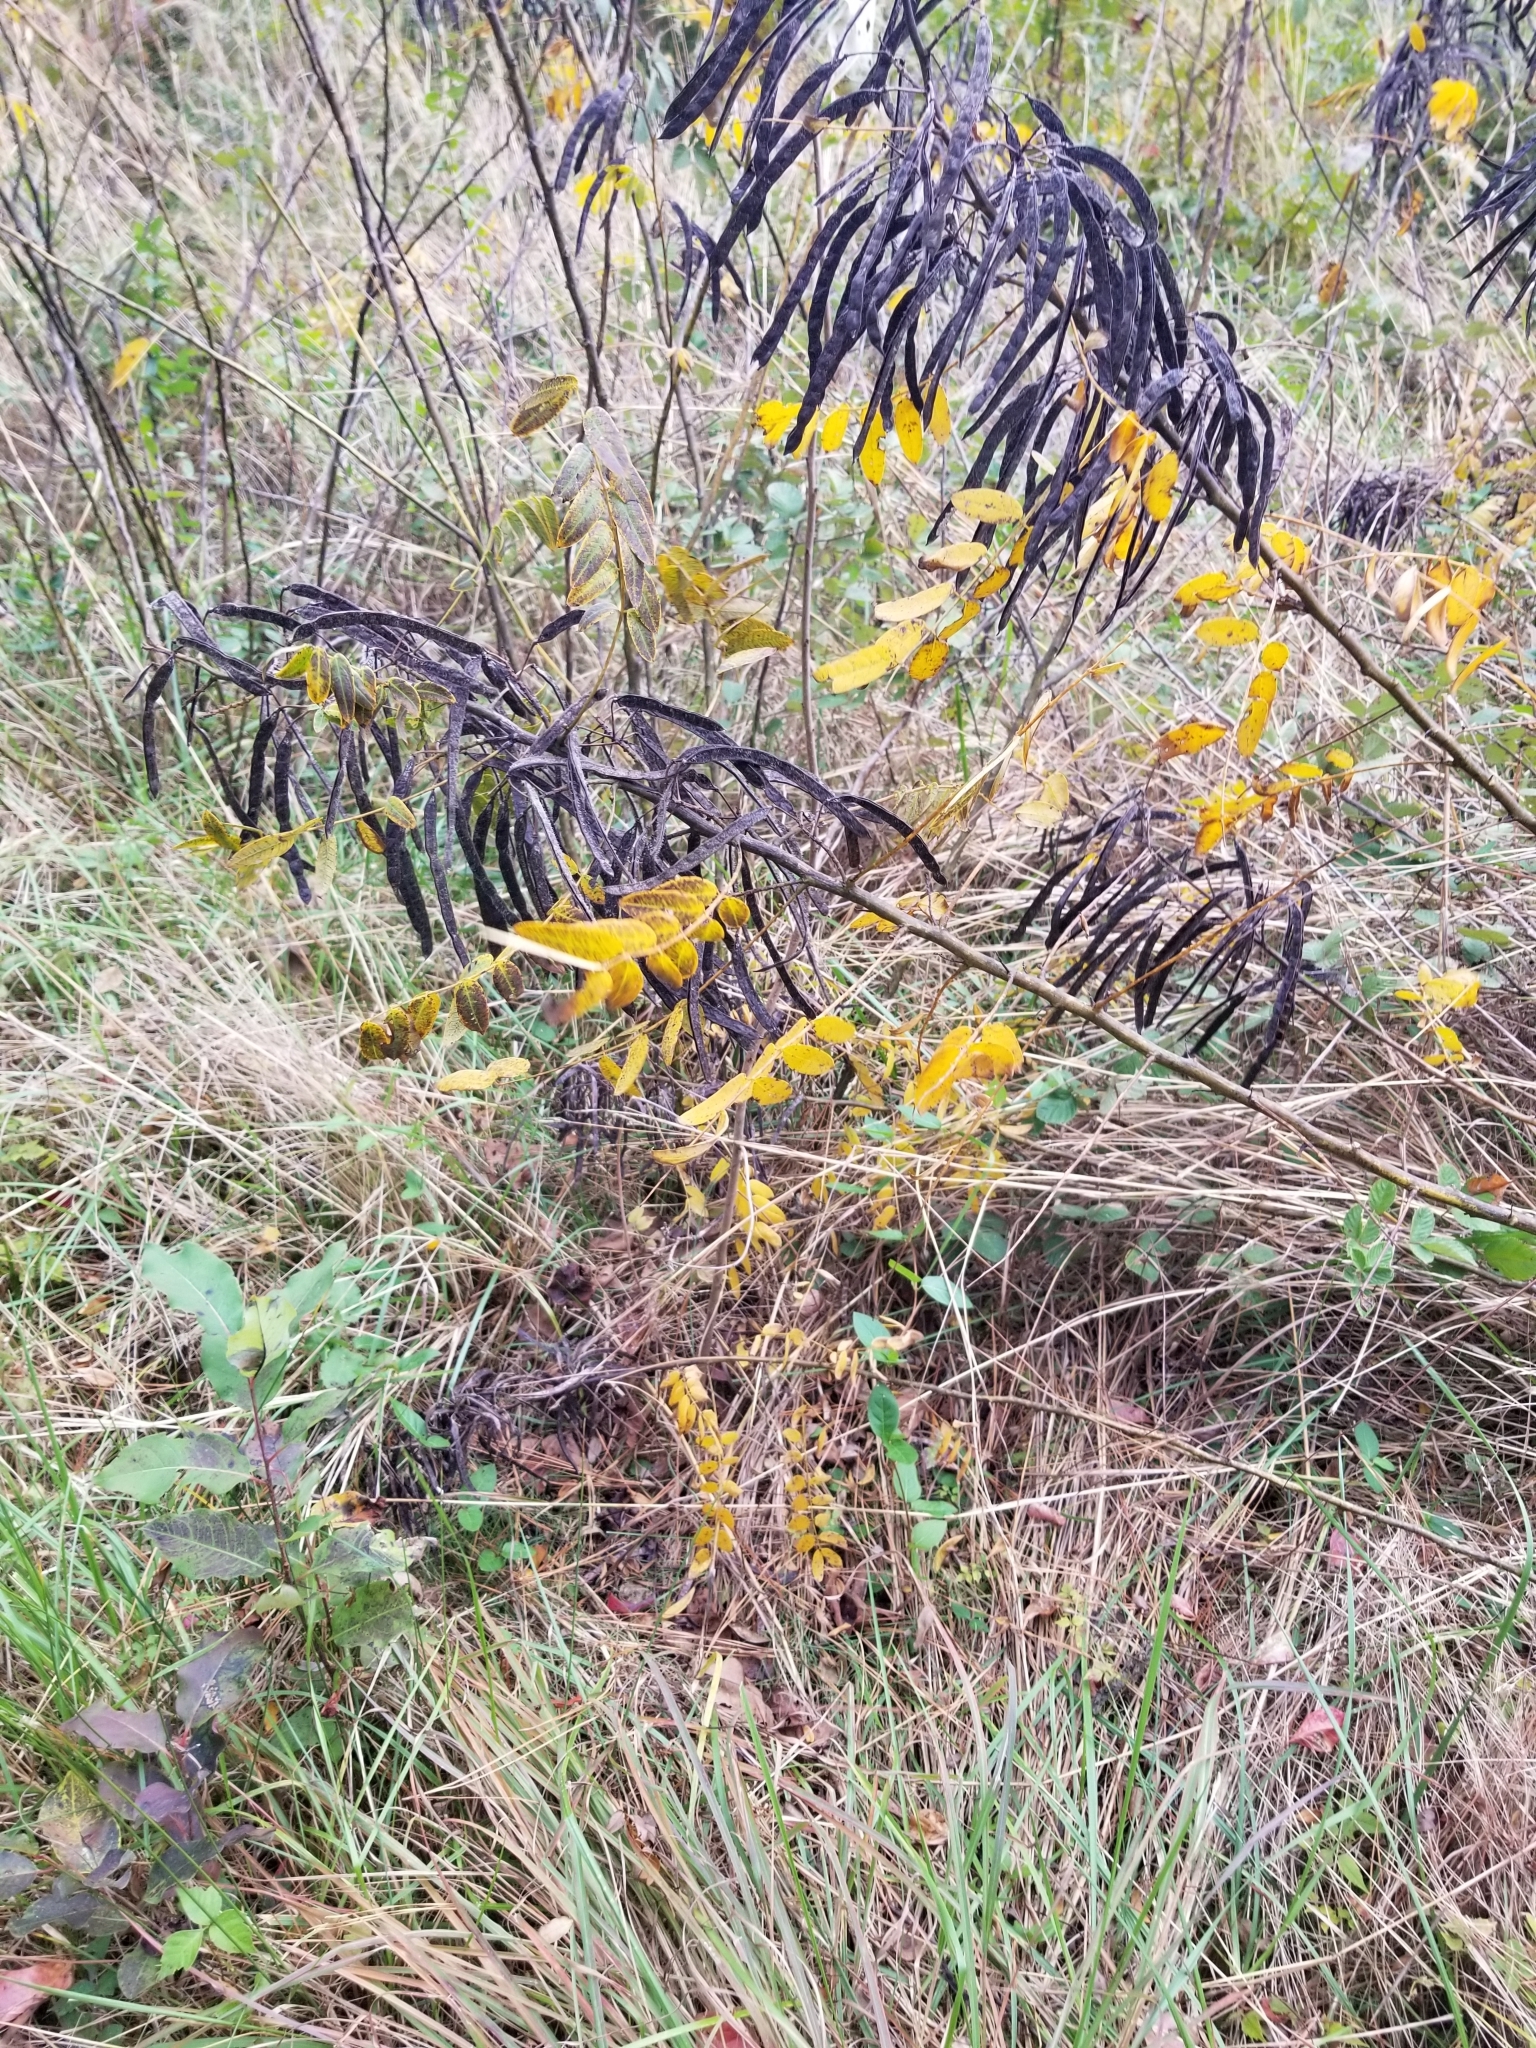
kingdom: Plantae
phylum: Tracheophyta
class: Magnoliopsida
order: Fabales
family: Fabaceae
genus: Senna
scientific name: Senna hebecarpa
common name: Wild senna
